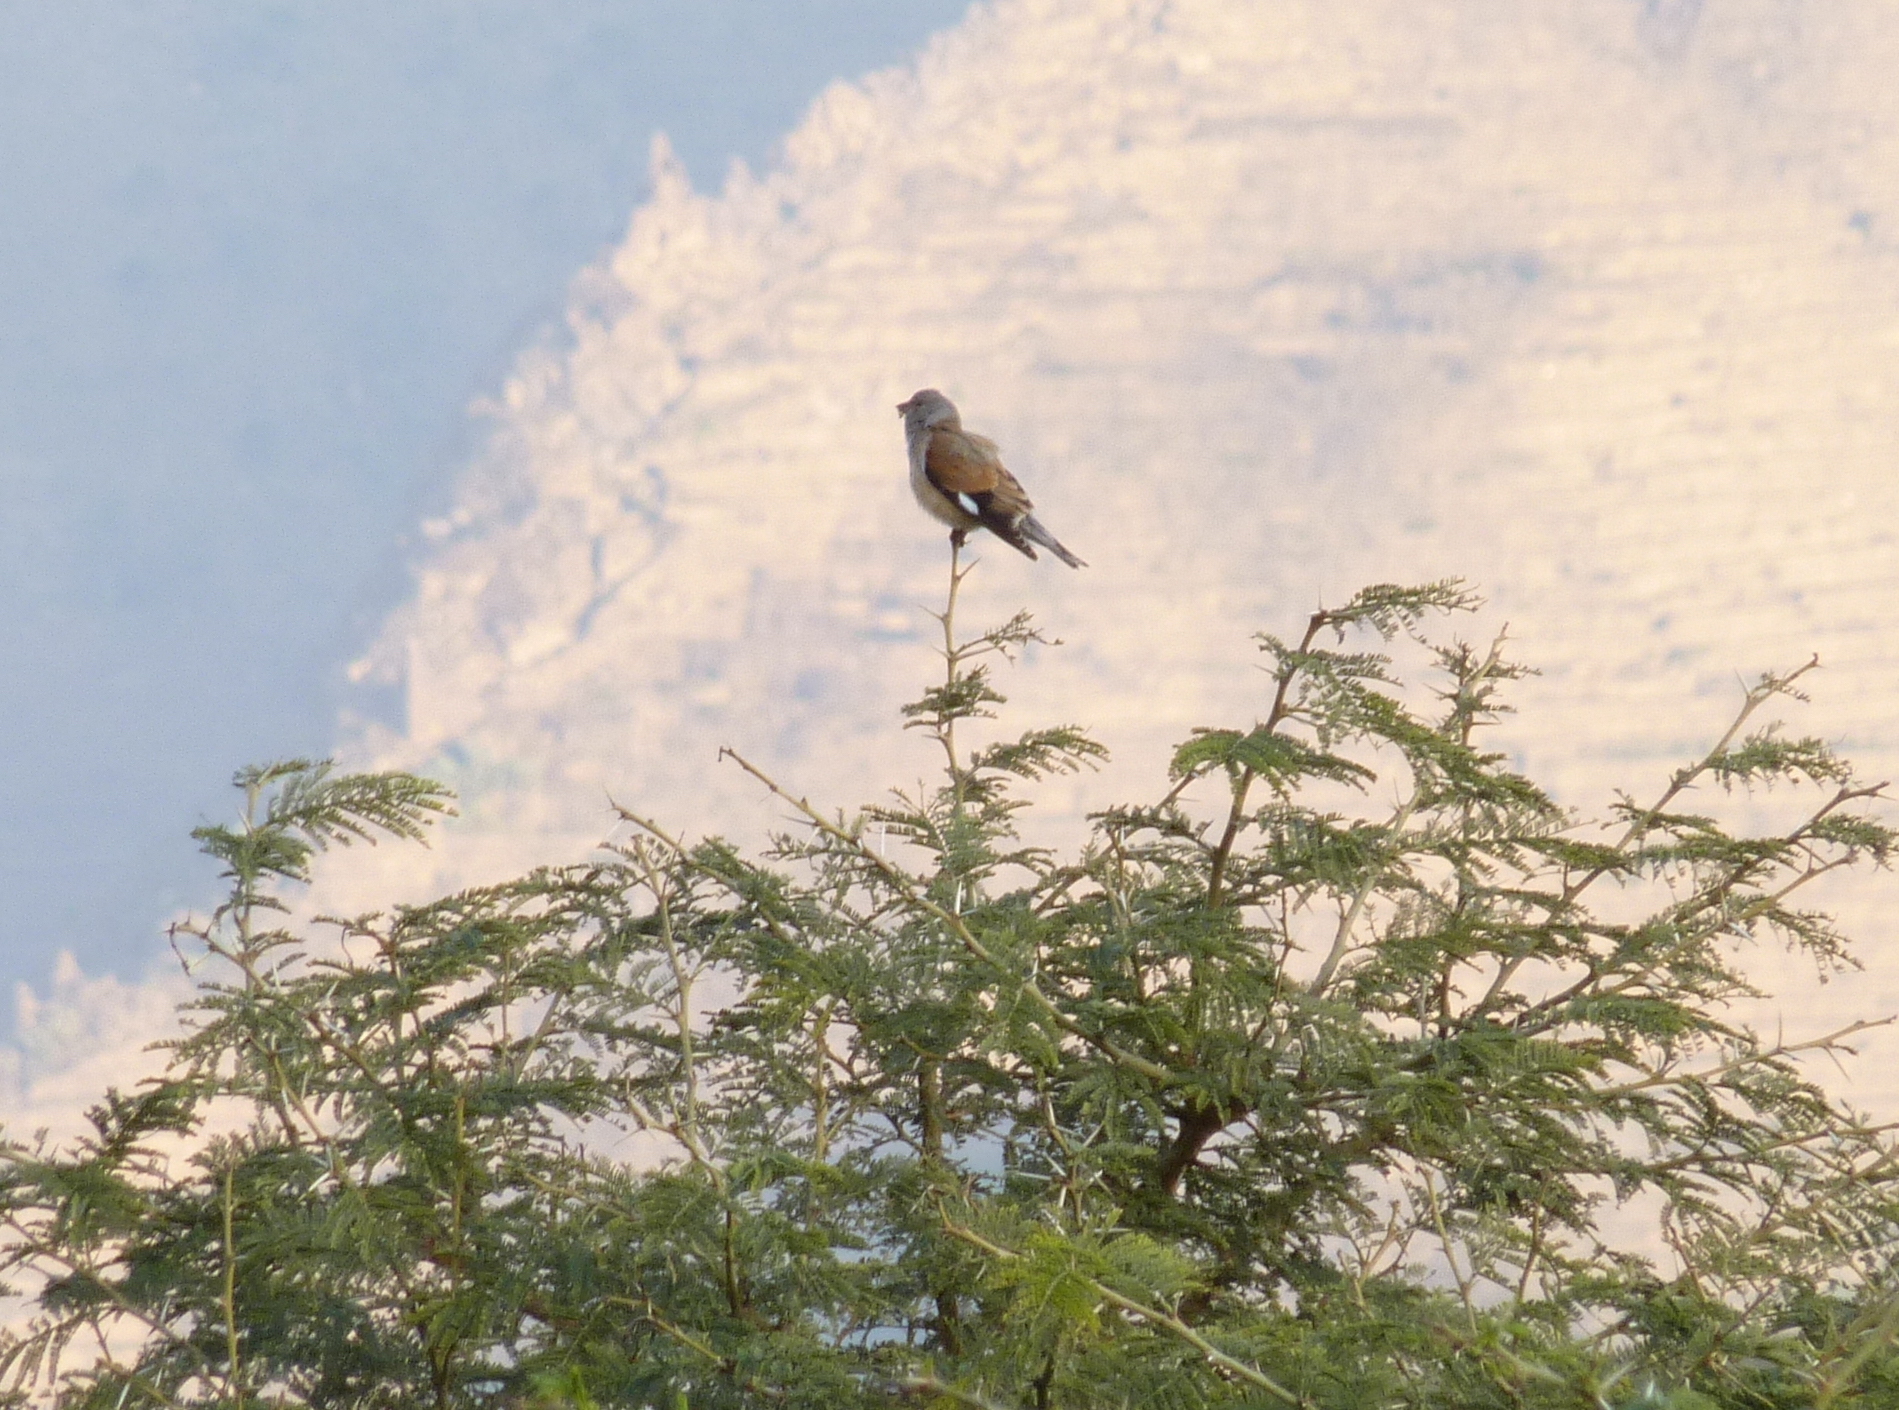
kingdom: Animalia
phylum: Chordata
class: Aves
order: Passeriformes
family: Fringillidae
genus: Linaria
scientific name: Linaria yemenensis
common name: Yemen linnet
